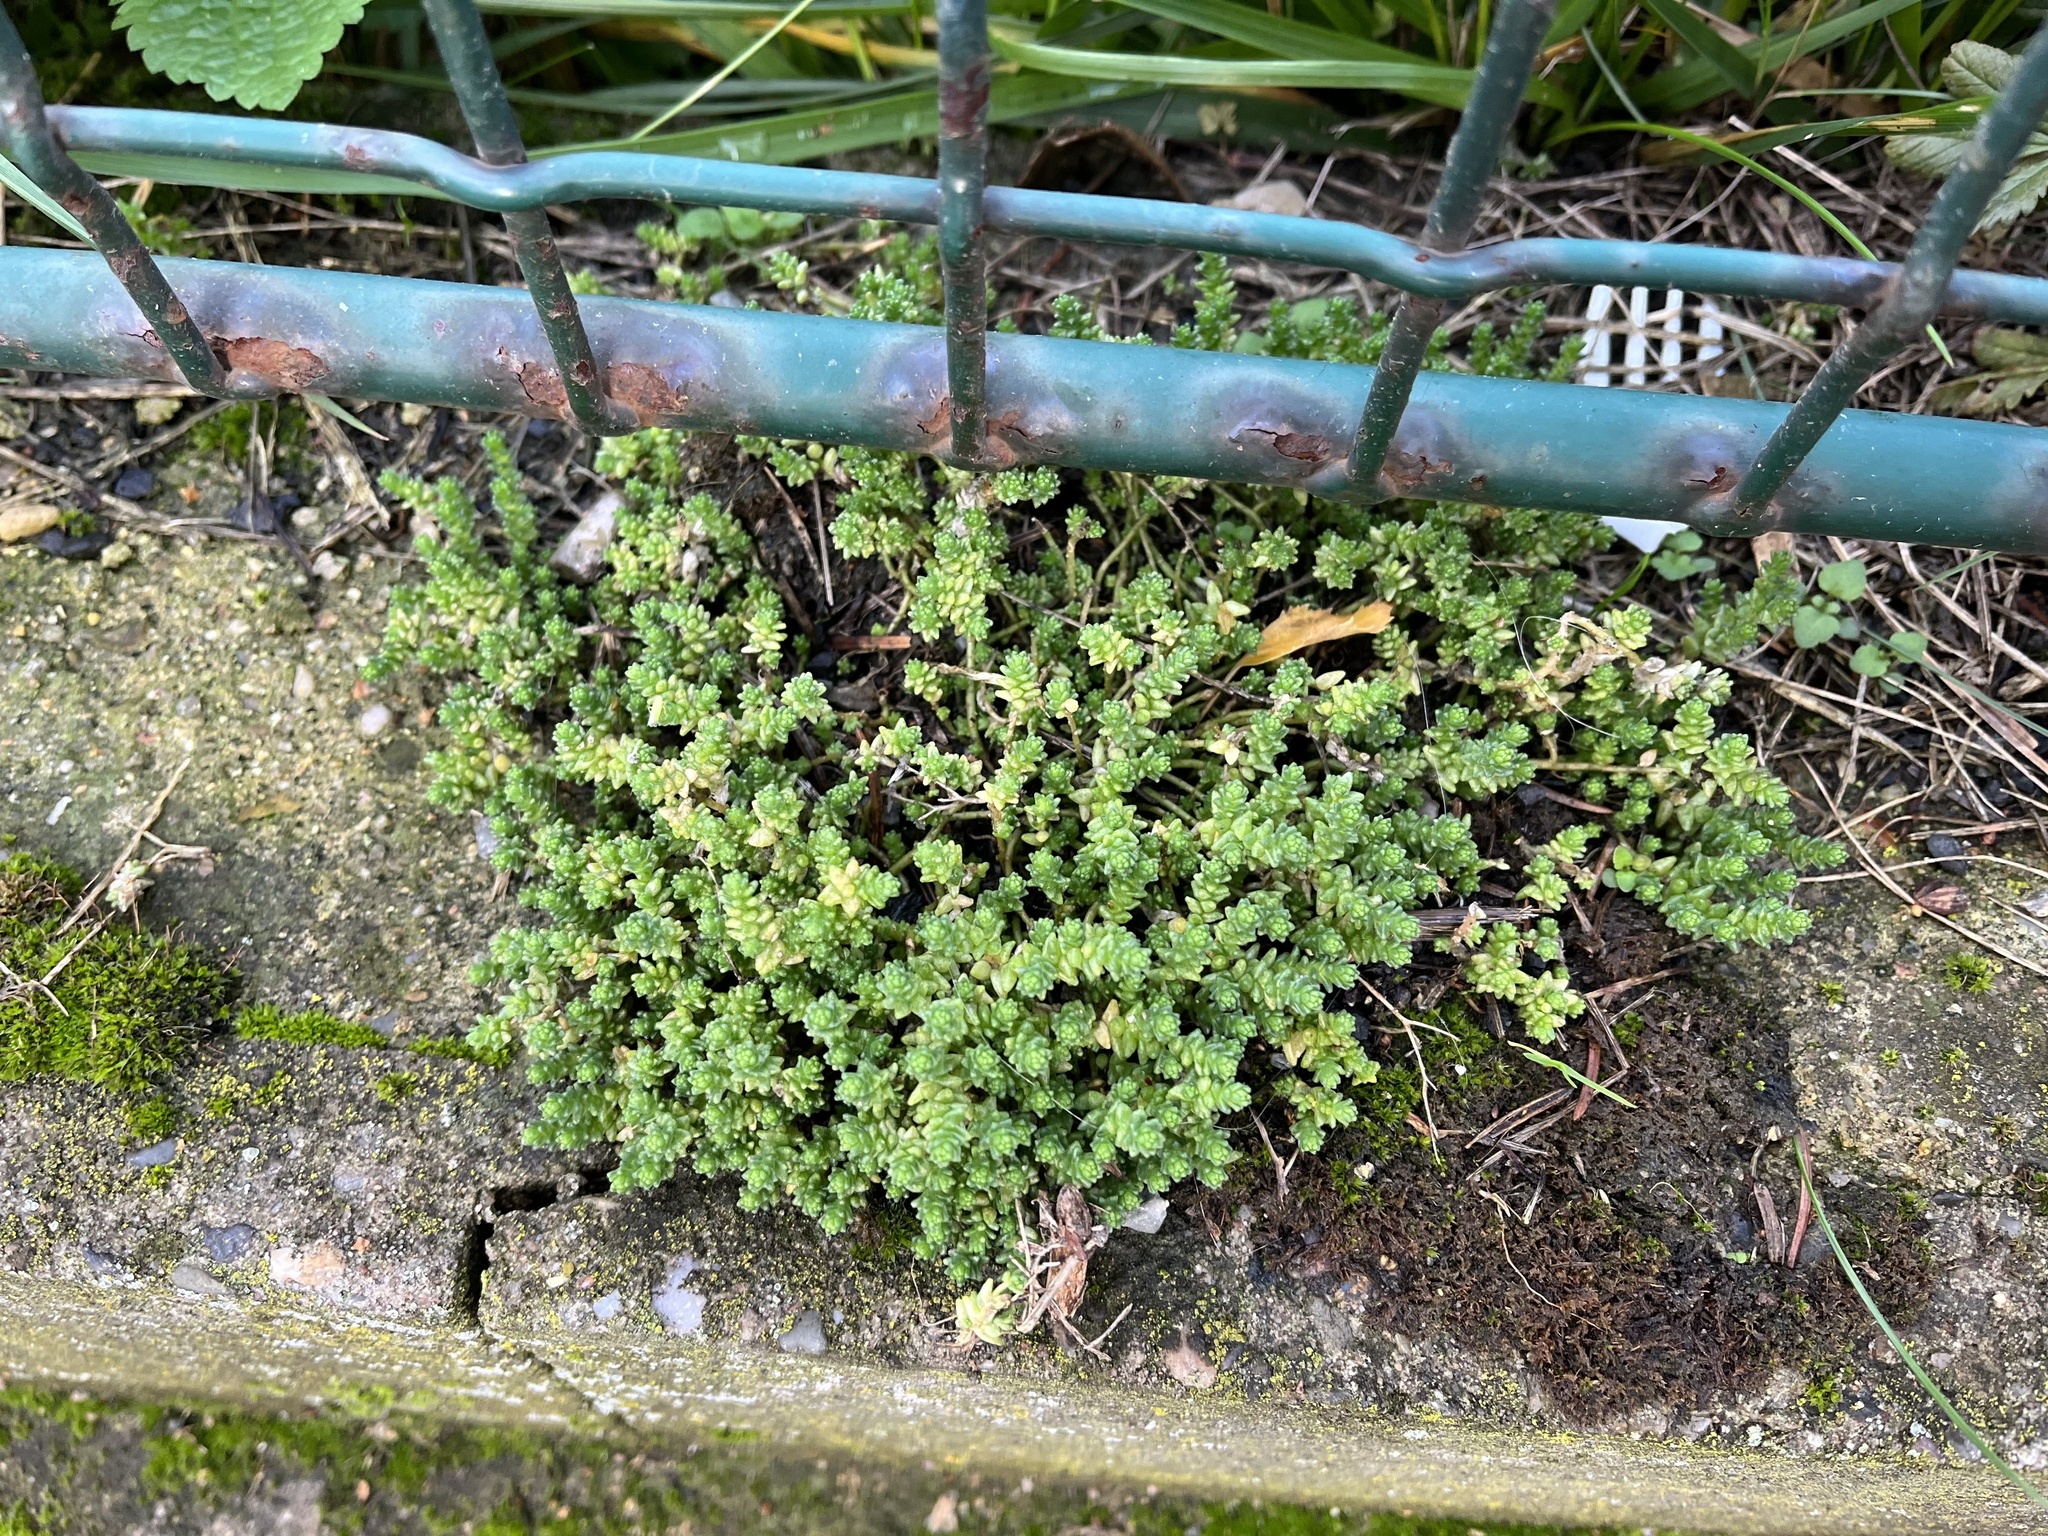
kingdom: Plantae
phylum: Tracheophyta
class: Magnoliopsida
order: Saxifragales
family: Crassulaceae
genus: Sedum
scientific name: Sedum acre
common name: Biting stonecrop
